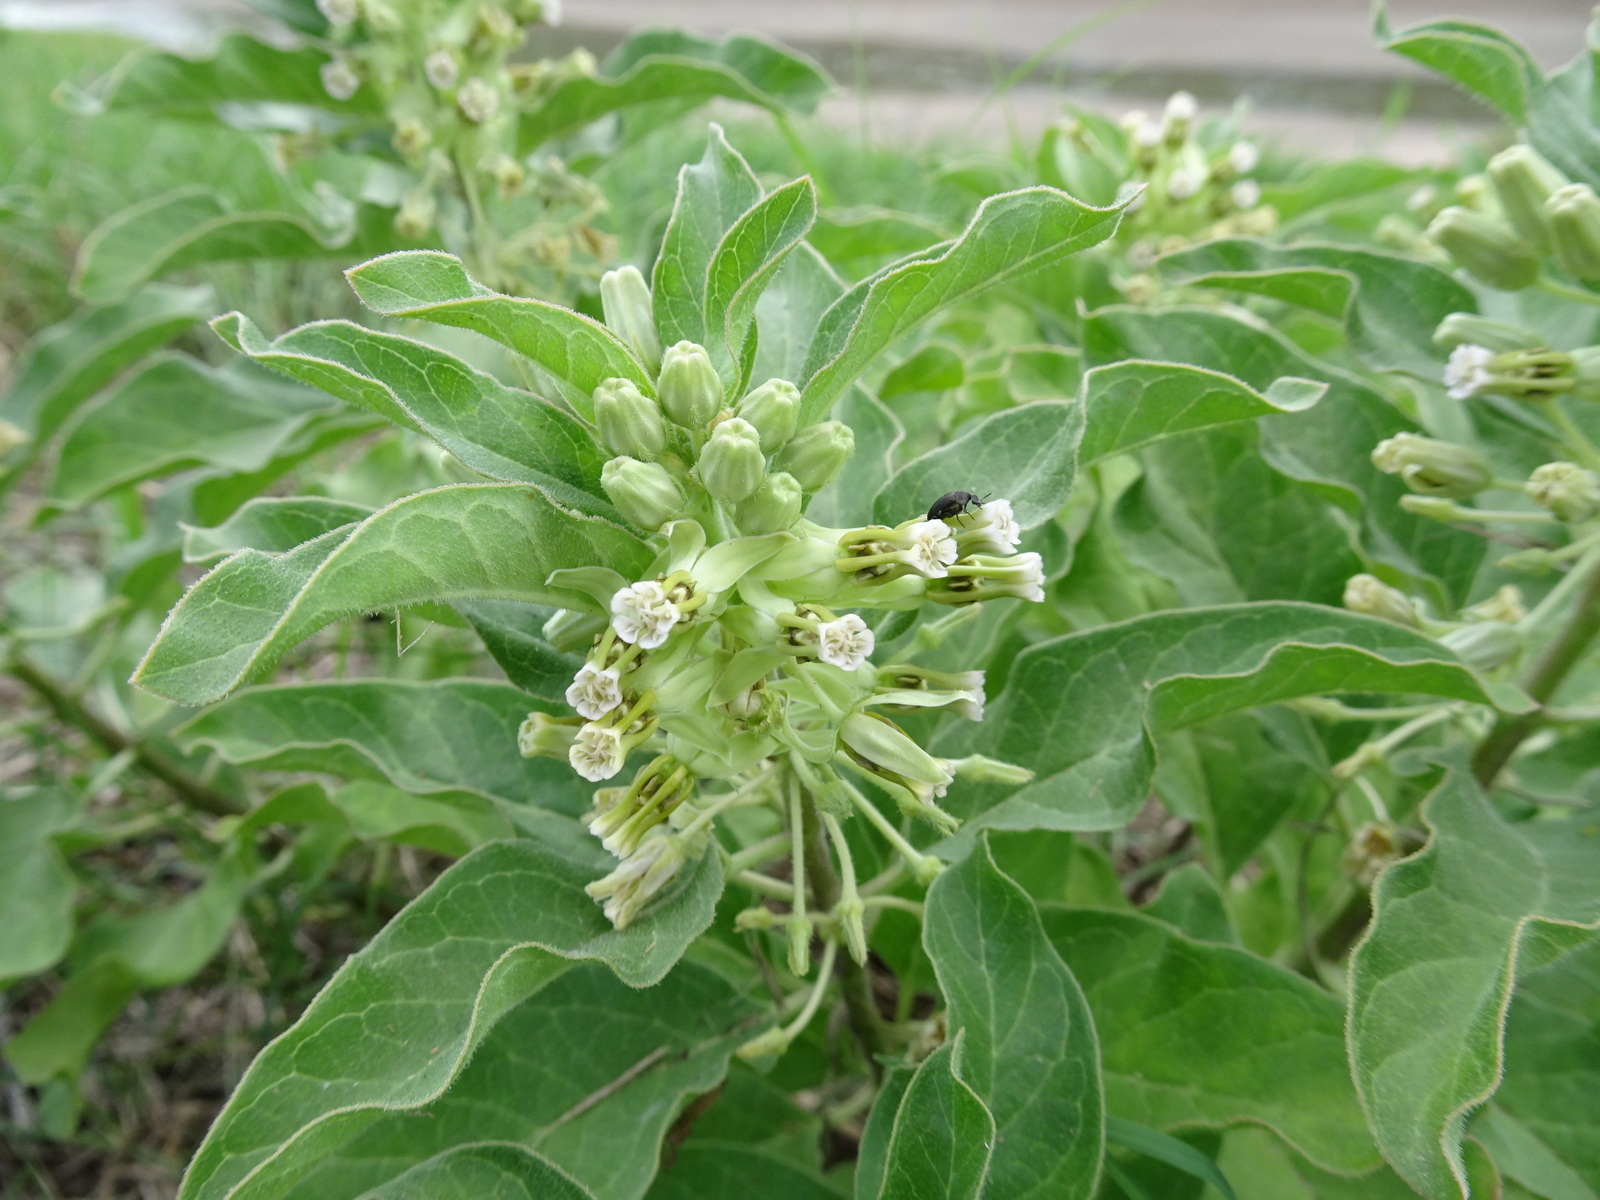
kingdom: Plantae
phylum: Tracheophyta
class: Magnoliopsida
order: Gentianales
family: Apocynaceae
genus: Asclepias
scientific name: Asclepias oenotheroides
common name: Zizotes milkweed
